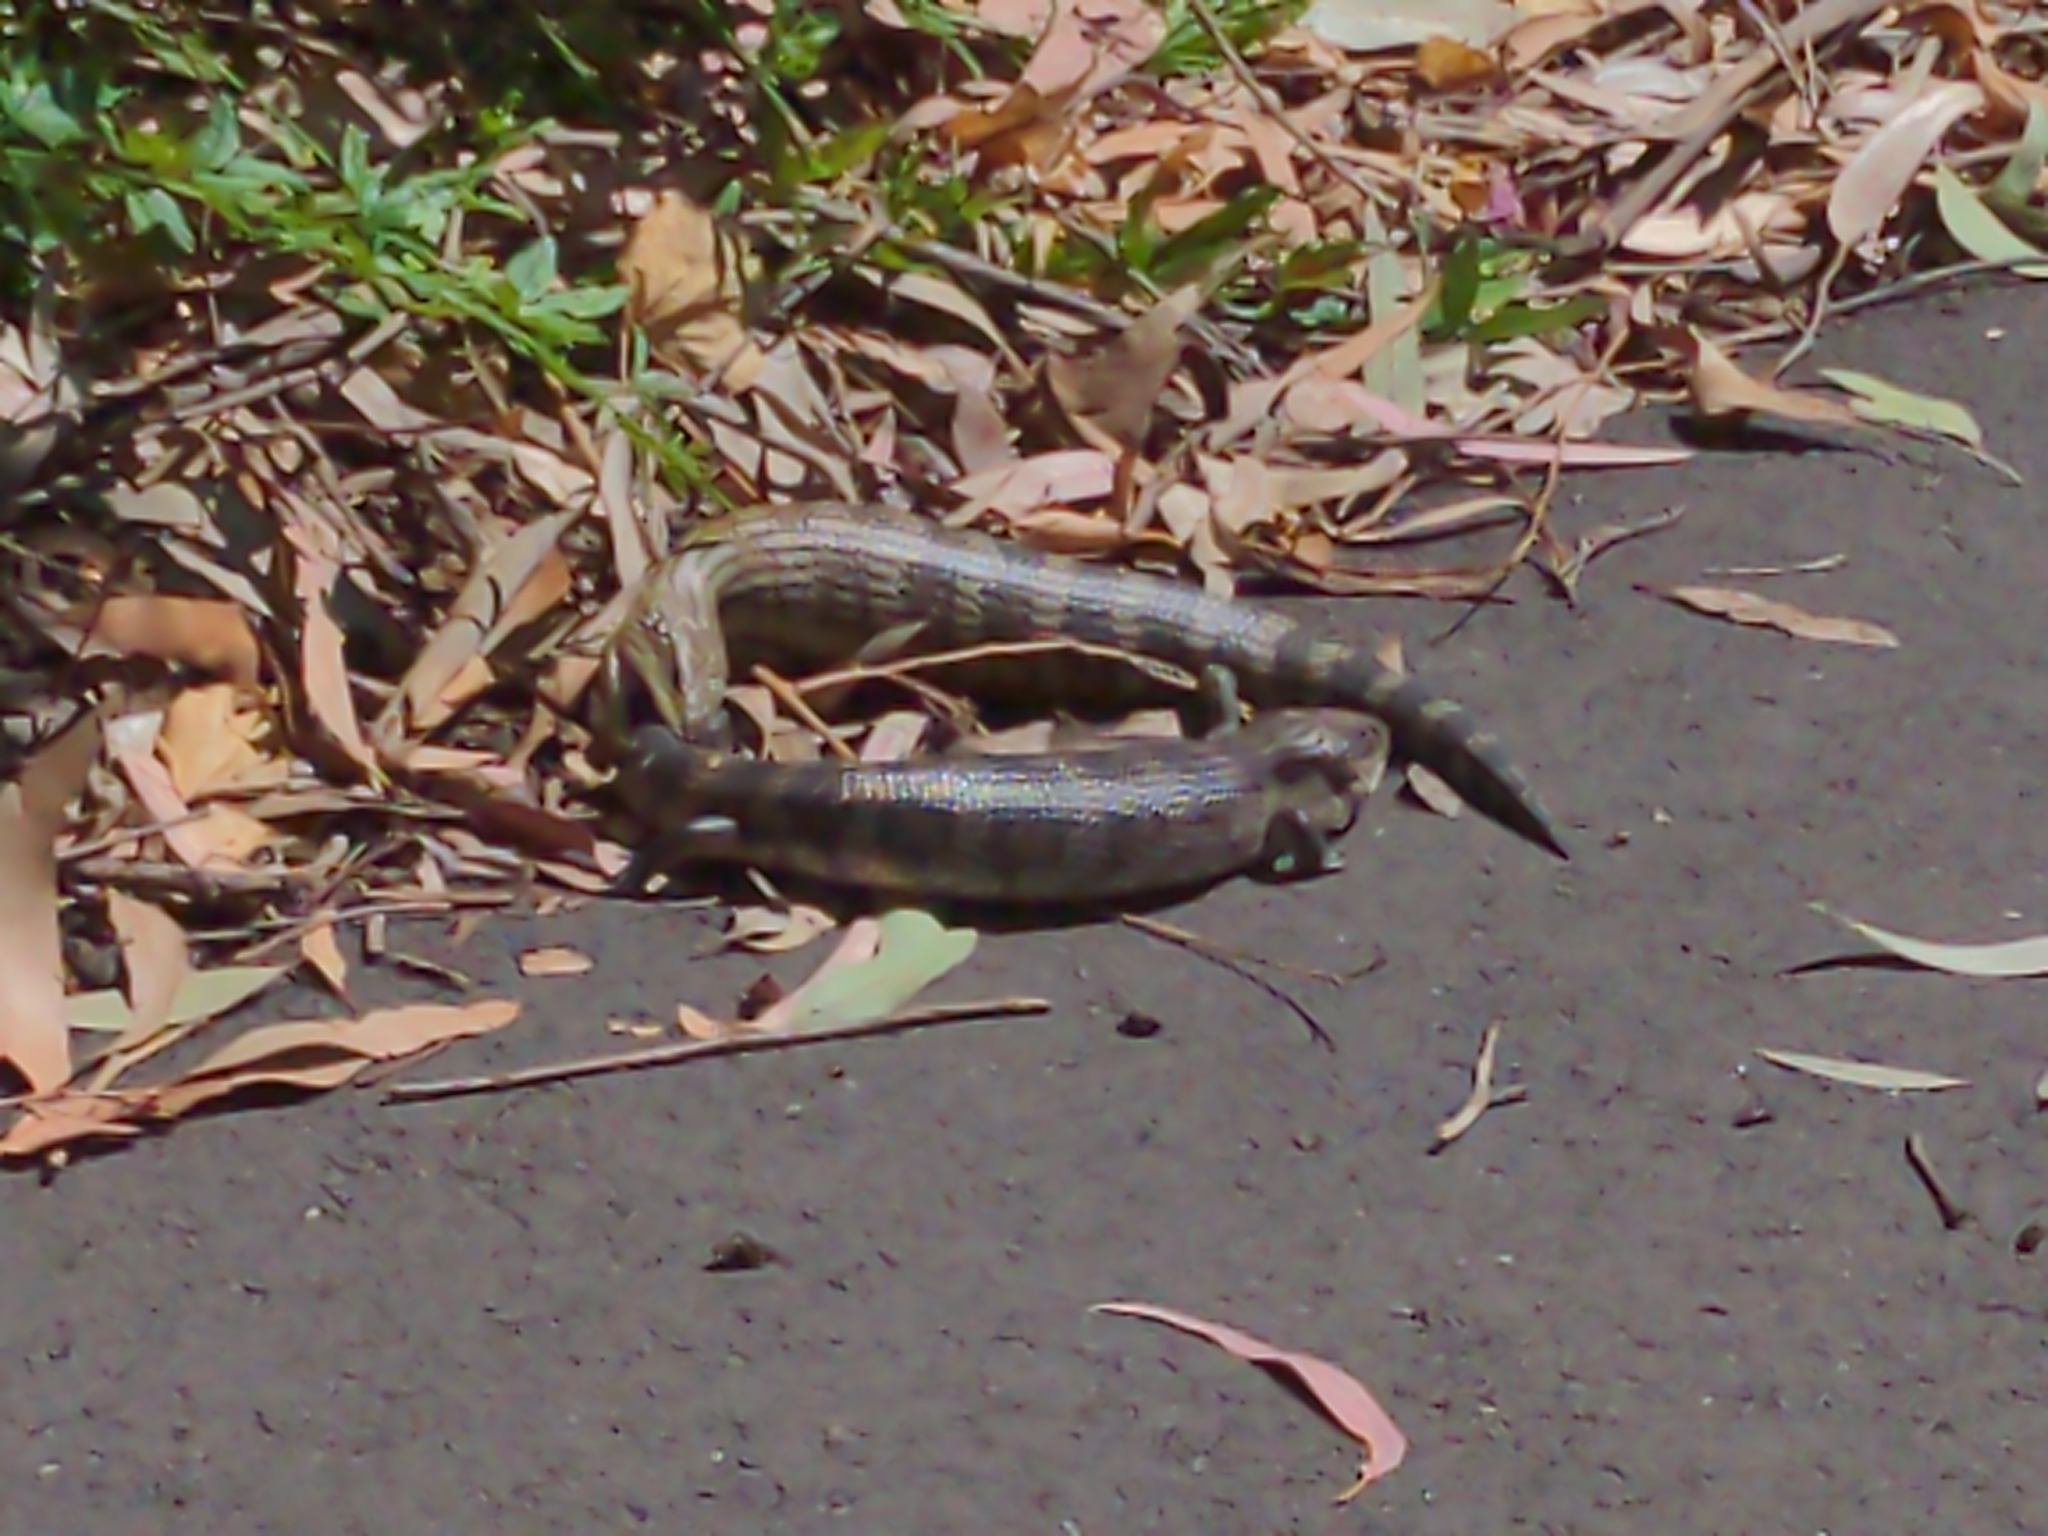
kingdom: Animalia
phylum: Chordata
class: Squamata
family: Scincidae
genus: Tiliqua
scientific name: Tiliqua scincoides
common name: Common bluetongue
